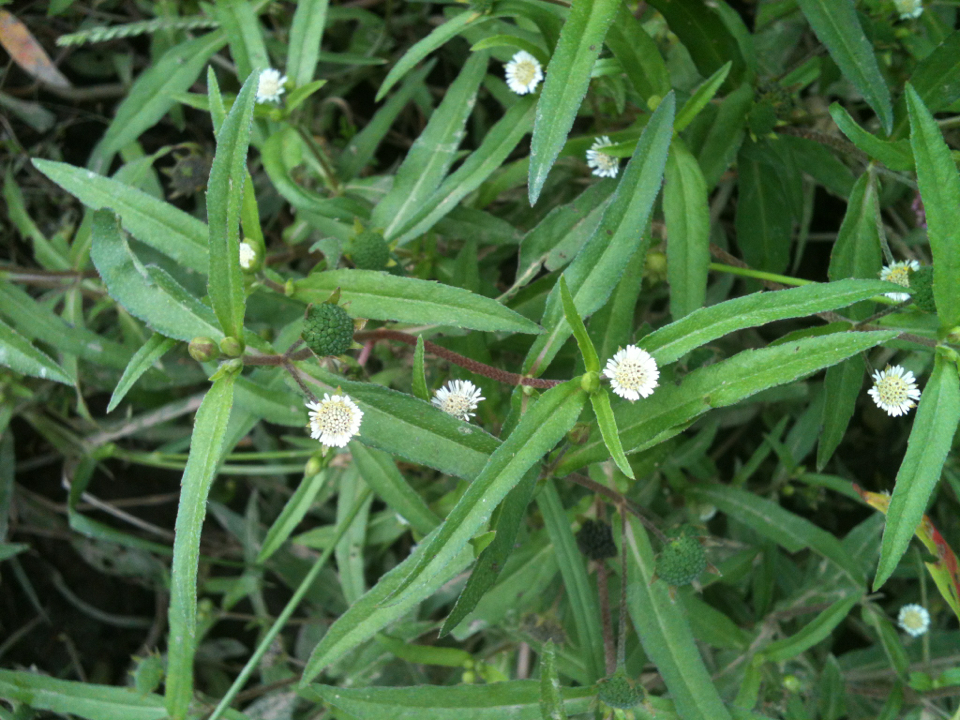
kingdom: Plantae
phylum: Tracheophyta
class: Magnoliopsida
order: Asterales
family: Asteraceae
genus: Eclipta
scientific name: Eclipta prostrata
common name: False daisy
